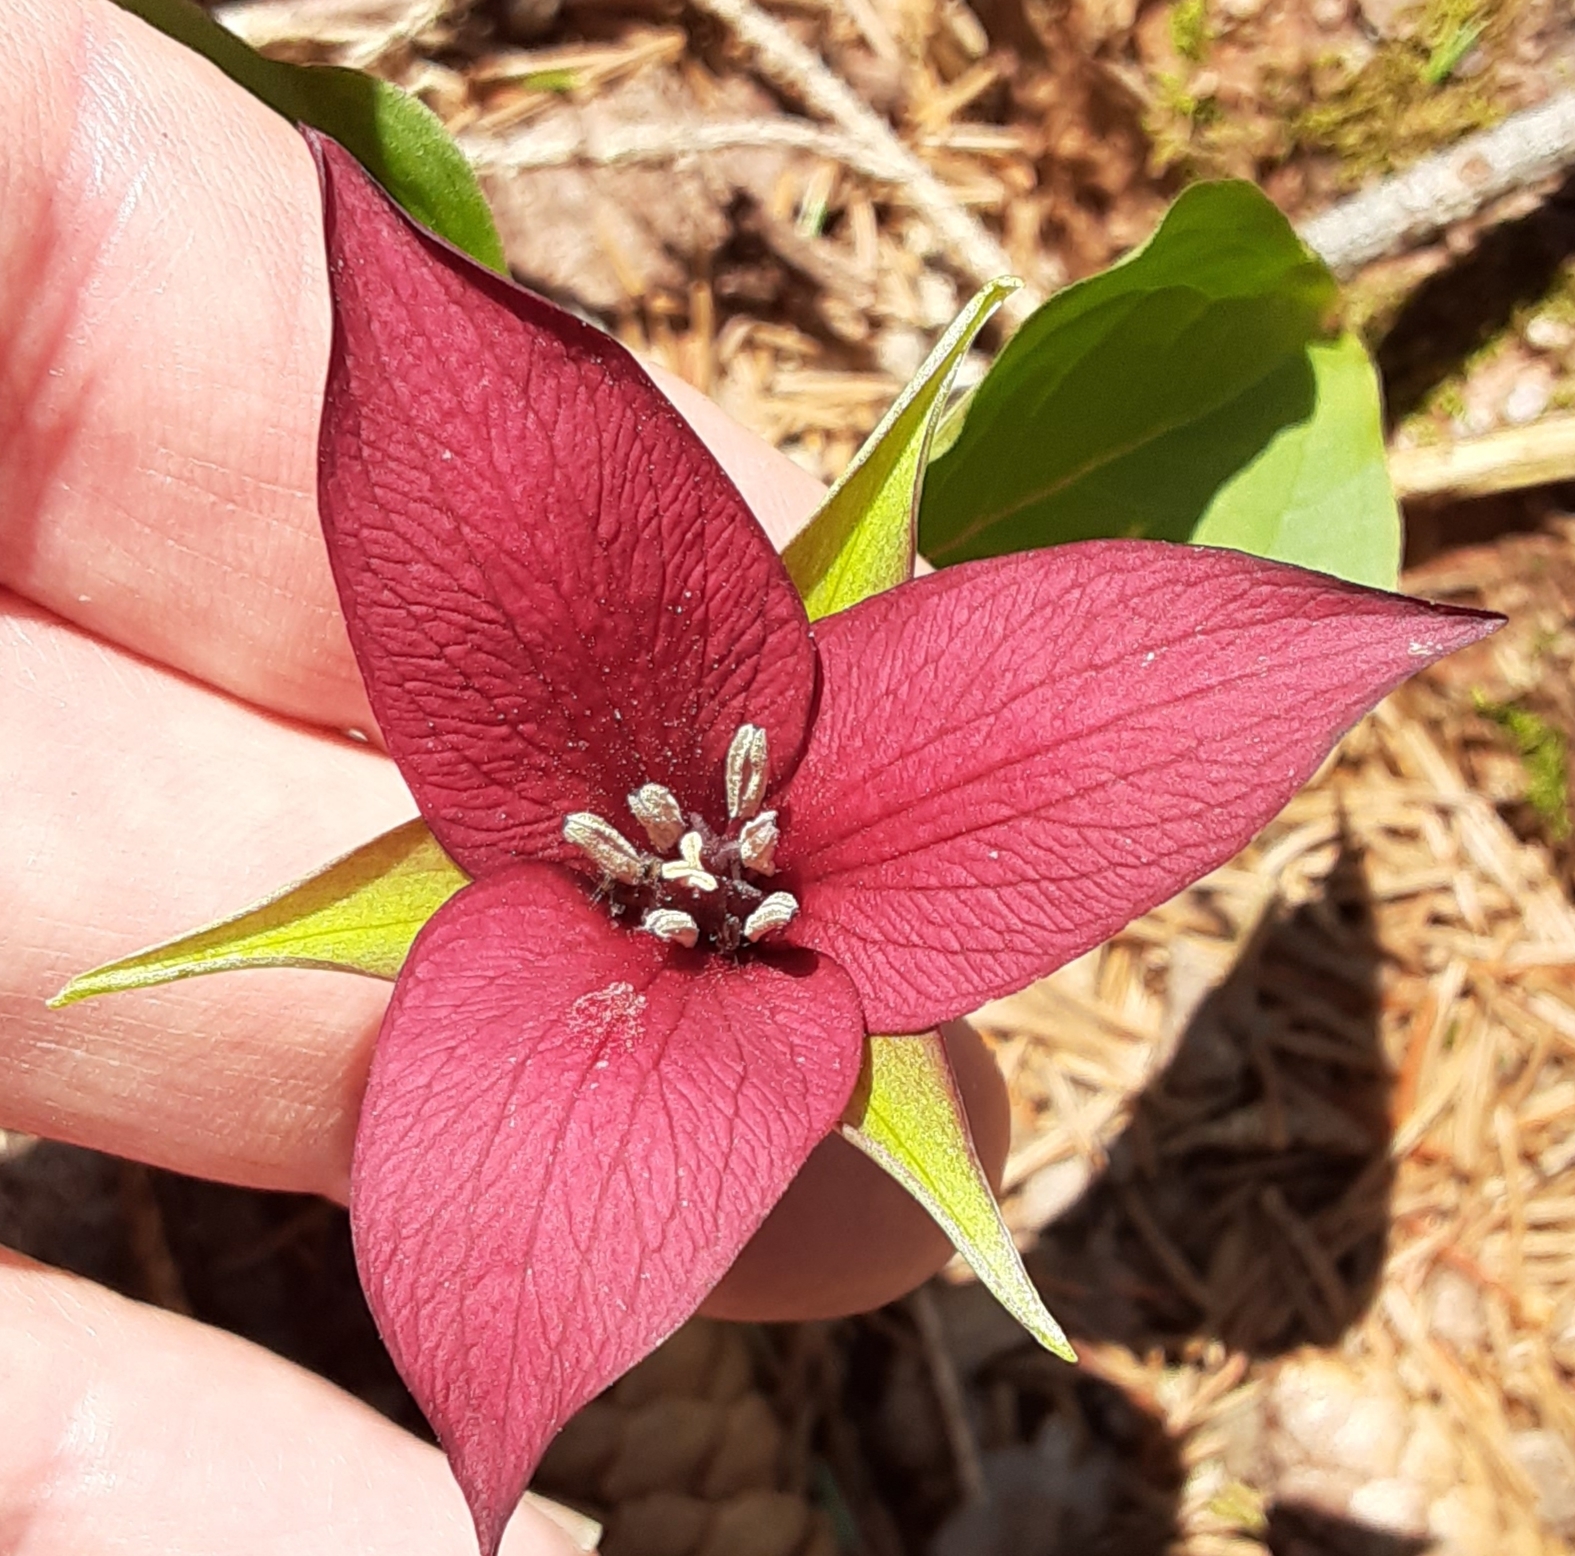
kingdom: Plantae
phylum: Tracheophyta
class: Liliopsida
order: Liliales
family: Melanthiaceae
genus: Trillium
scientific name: Trillium erectum
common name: Purple trillium
